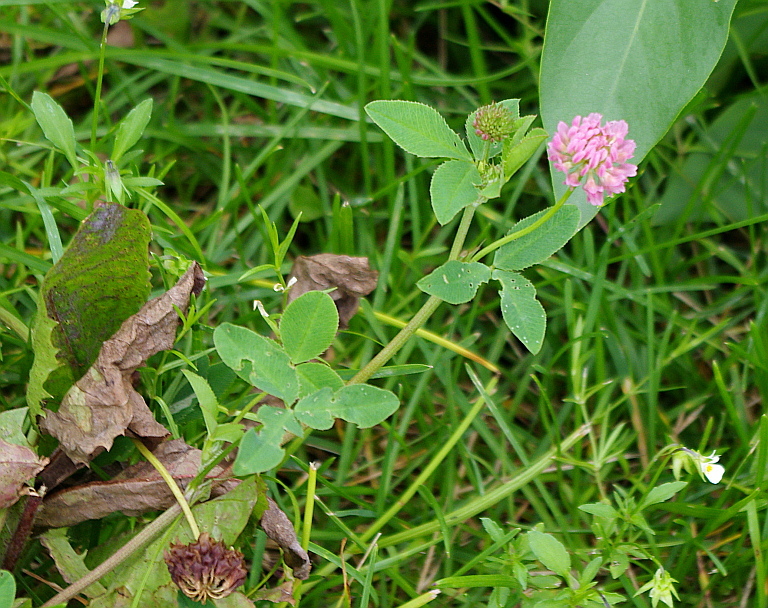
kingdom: Plantae
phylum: Tracheophyta
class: Magnoliopsida
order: Fabales
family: Fabaceae
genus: Trifolium
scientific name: Trifolium pratense
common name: Red clover
